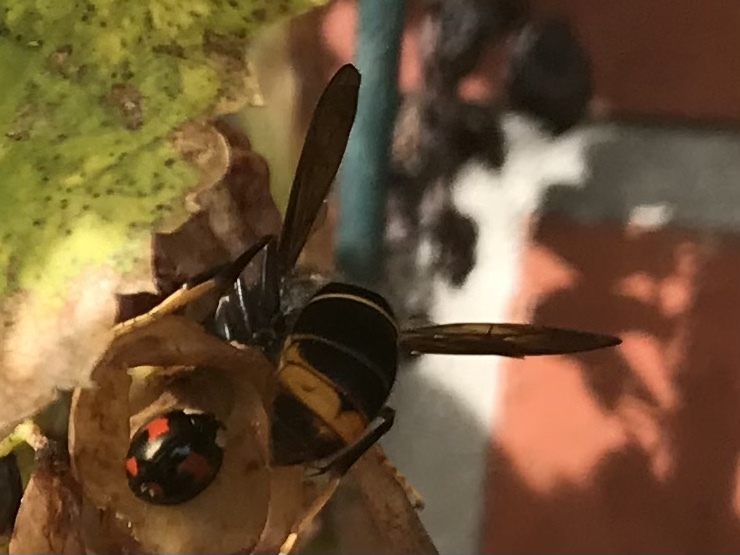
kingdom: Animalia
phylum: Arthropoda
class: Insecta
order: Hymenoptera
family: Vespidae
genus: Vespa
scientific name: Vespa velutina
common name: Asian hornet
